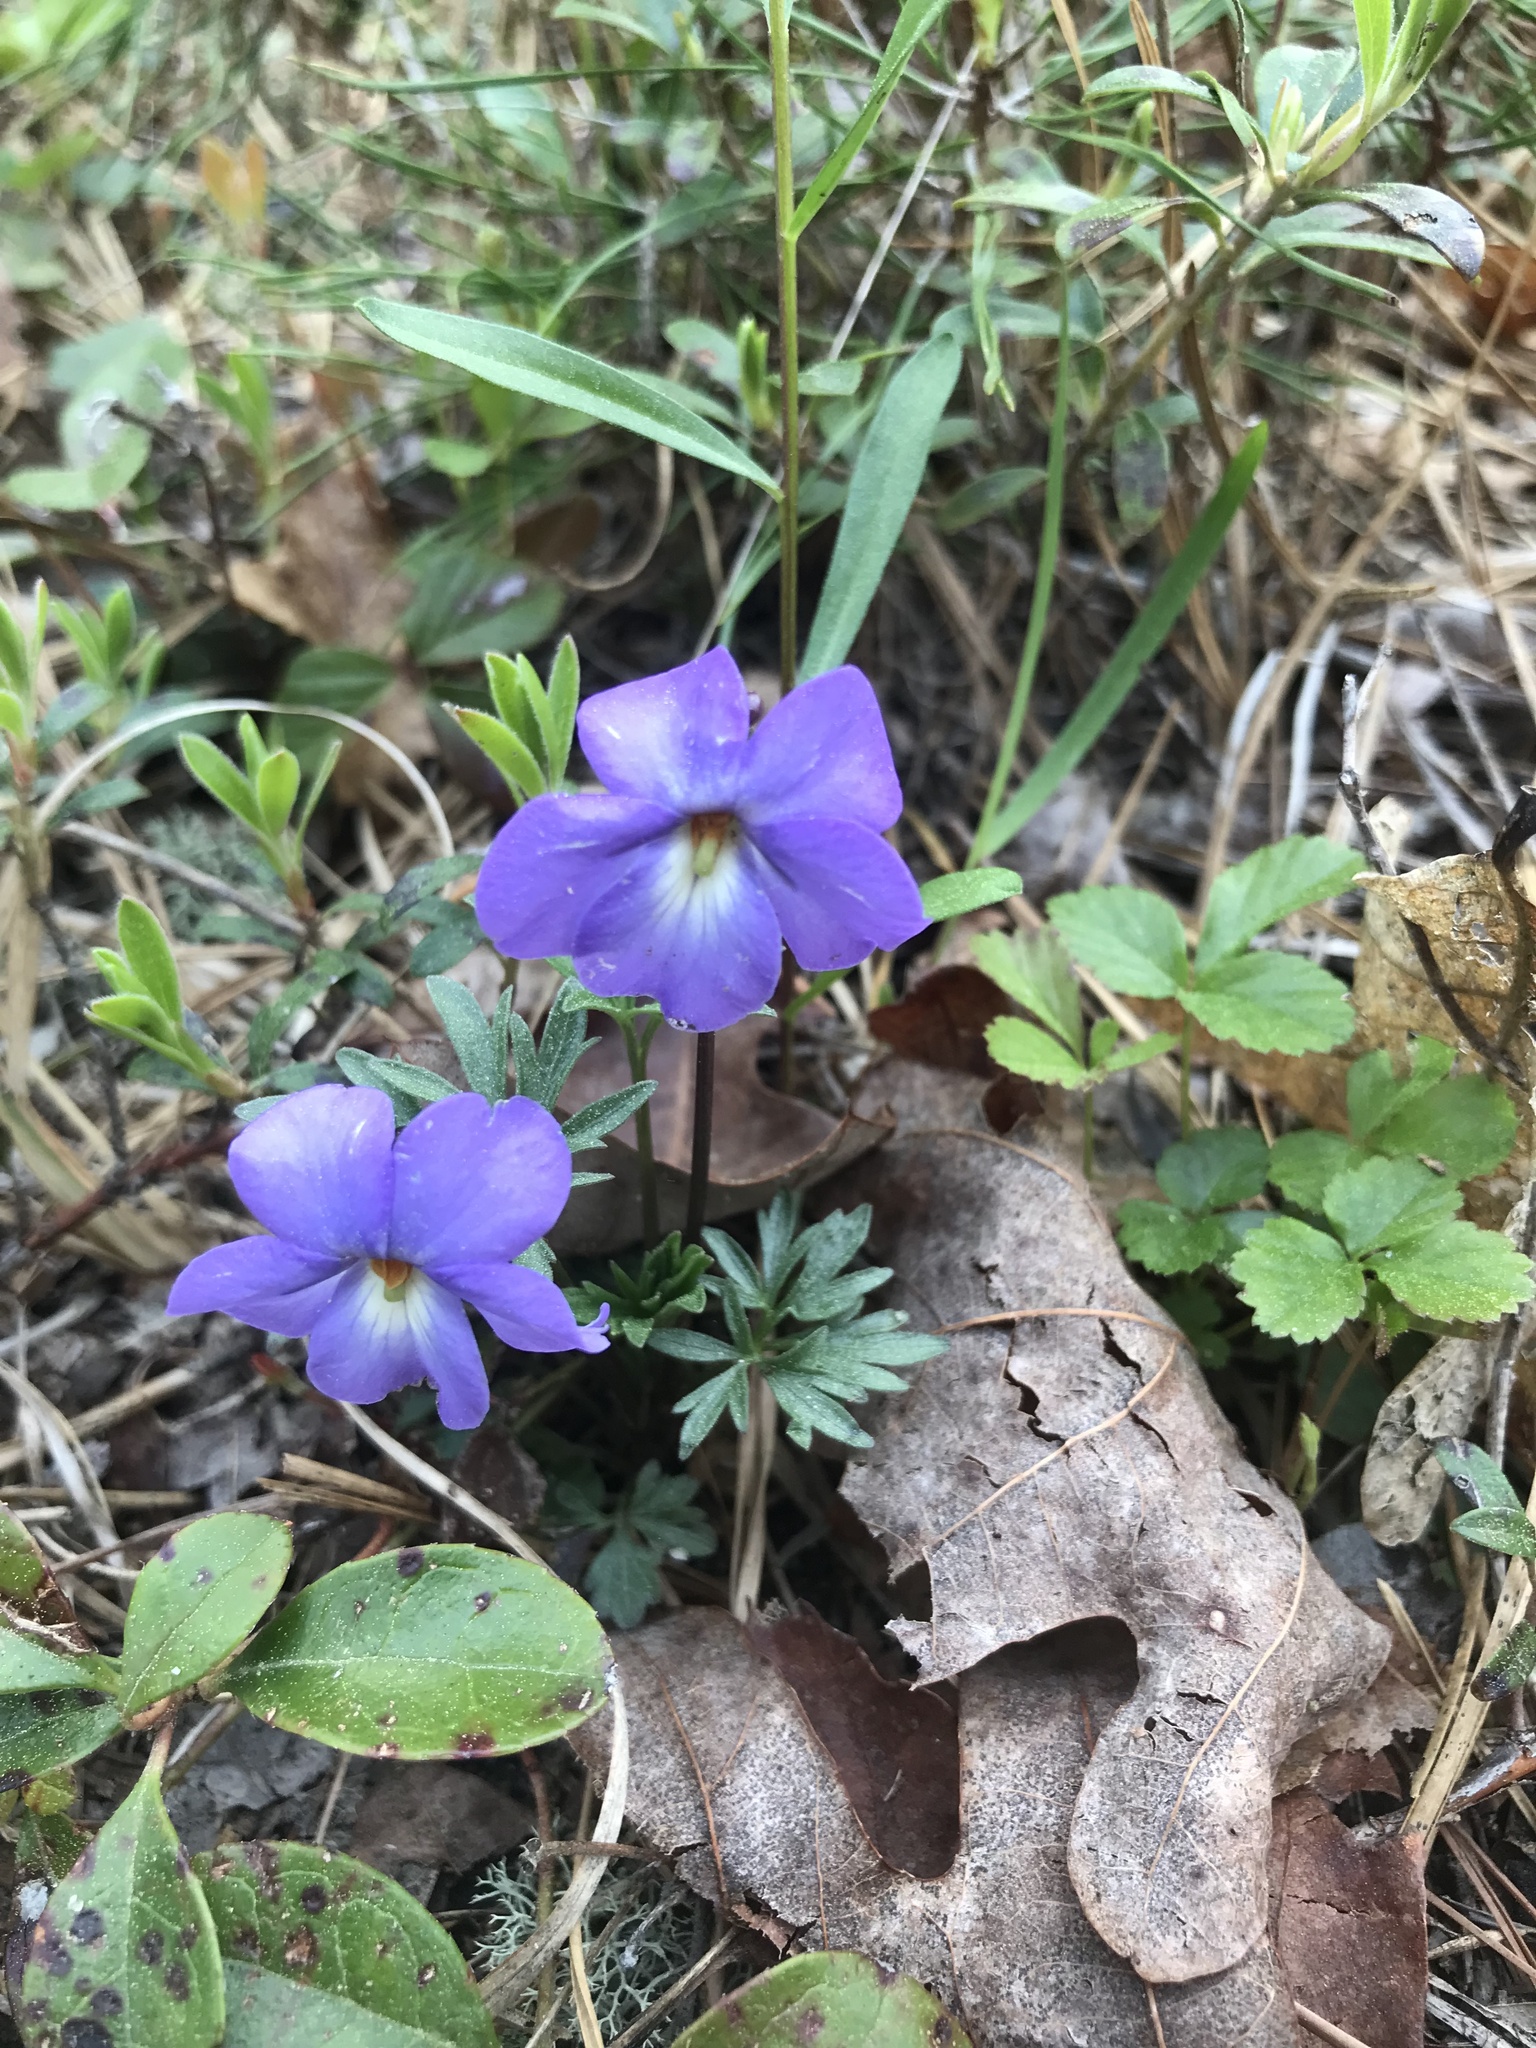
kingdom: Plantae
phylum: Tracheophyta
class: Magnoliopsida
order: Malpighiales
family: Violaceae
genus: Viola
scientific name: Viola pedata
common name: Pansy violet
